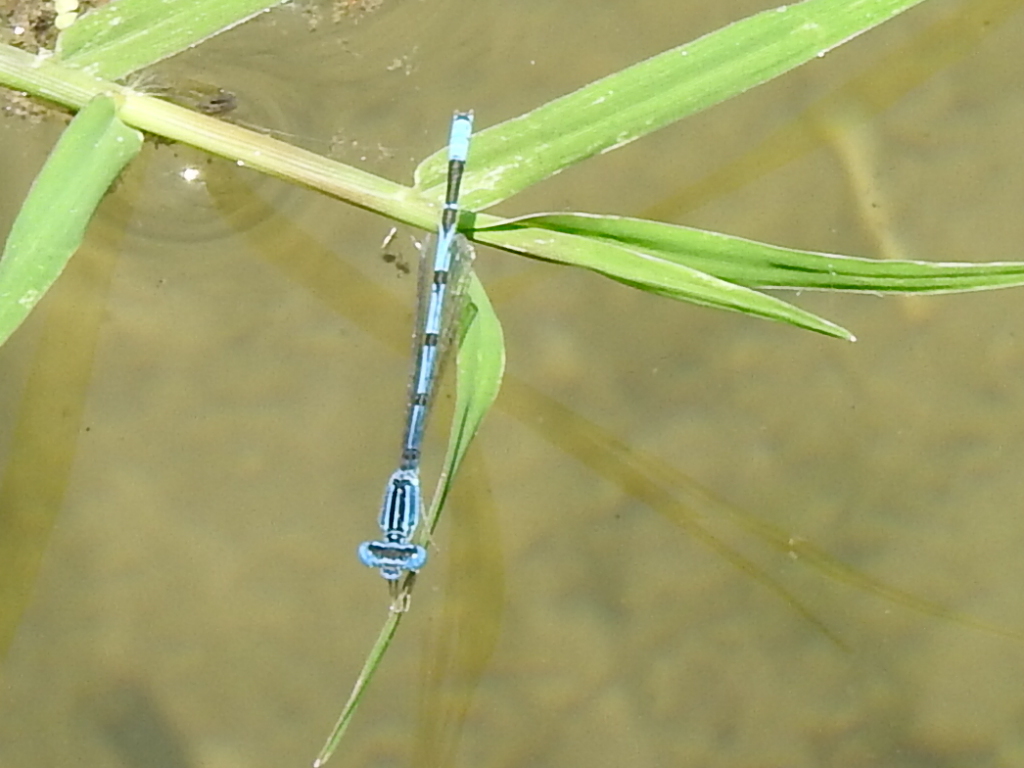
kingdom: Animalia
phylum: Arthropoda
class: Insecta
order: Odonata
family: Coenagrionidae
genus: Enallagma
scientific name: Enallagma basidens
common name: Double-striped bluet
